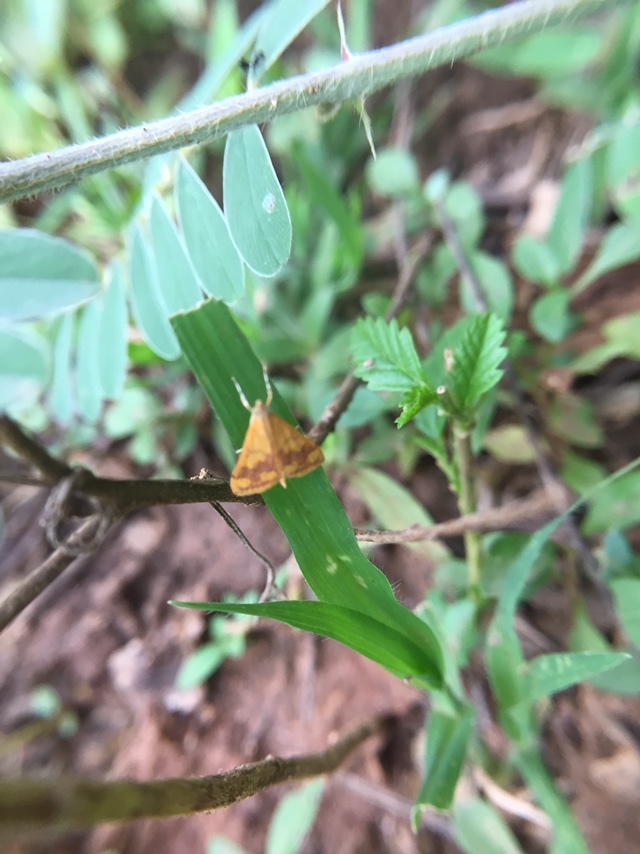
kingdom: Animalia
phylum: Arthropoda
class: Insecta
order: Lepidoptera
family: Crambidae
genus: Pyrausta
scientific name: Pyrausta phoenicealis
